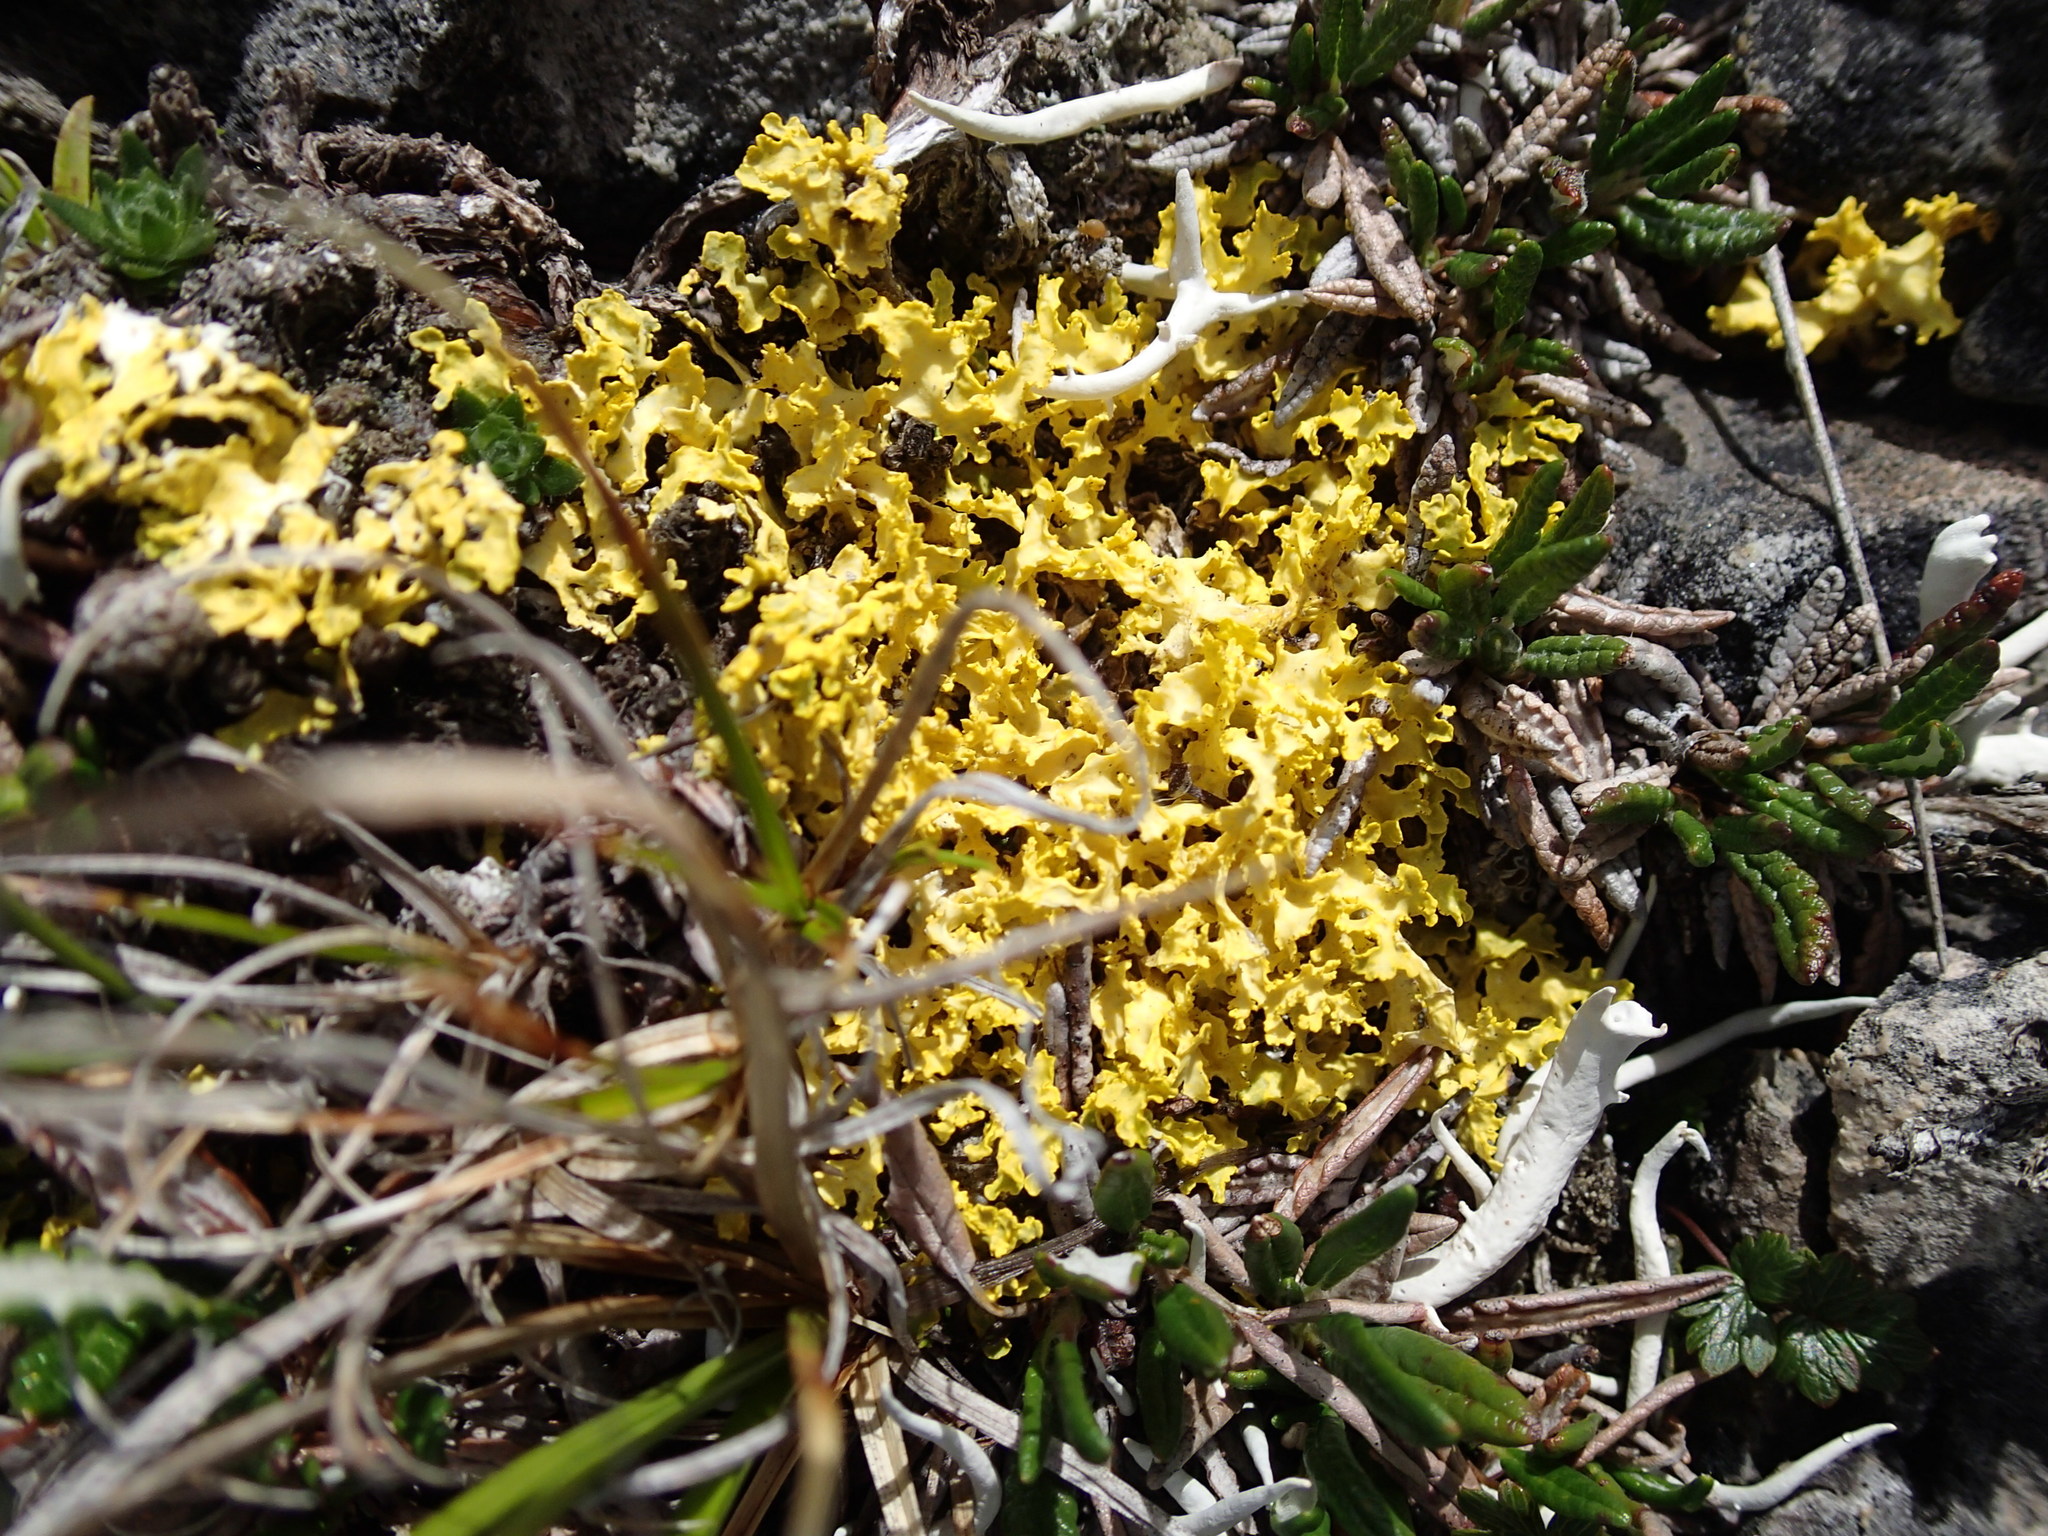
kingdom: Fungi
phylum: Ascomycota
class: Lecanoromycetes
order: Lecanorales
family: Parmeliaceae
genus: Vulpicida
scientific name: Vulpicida juniperinus
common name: Yellow lichen
